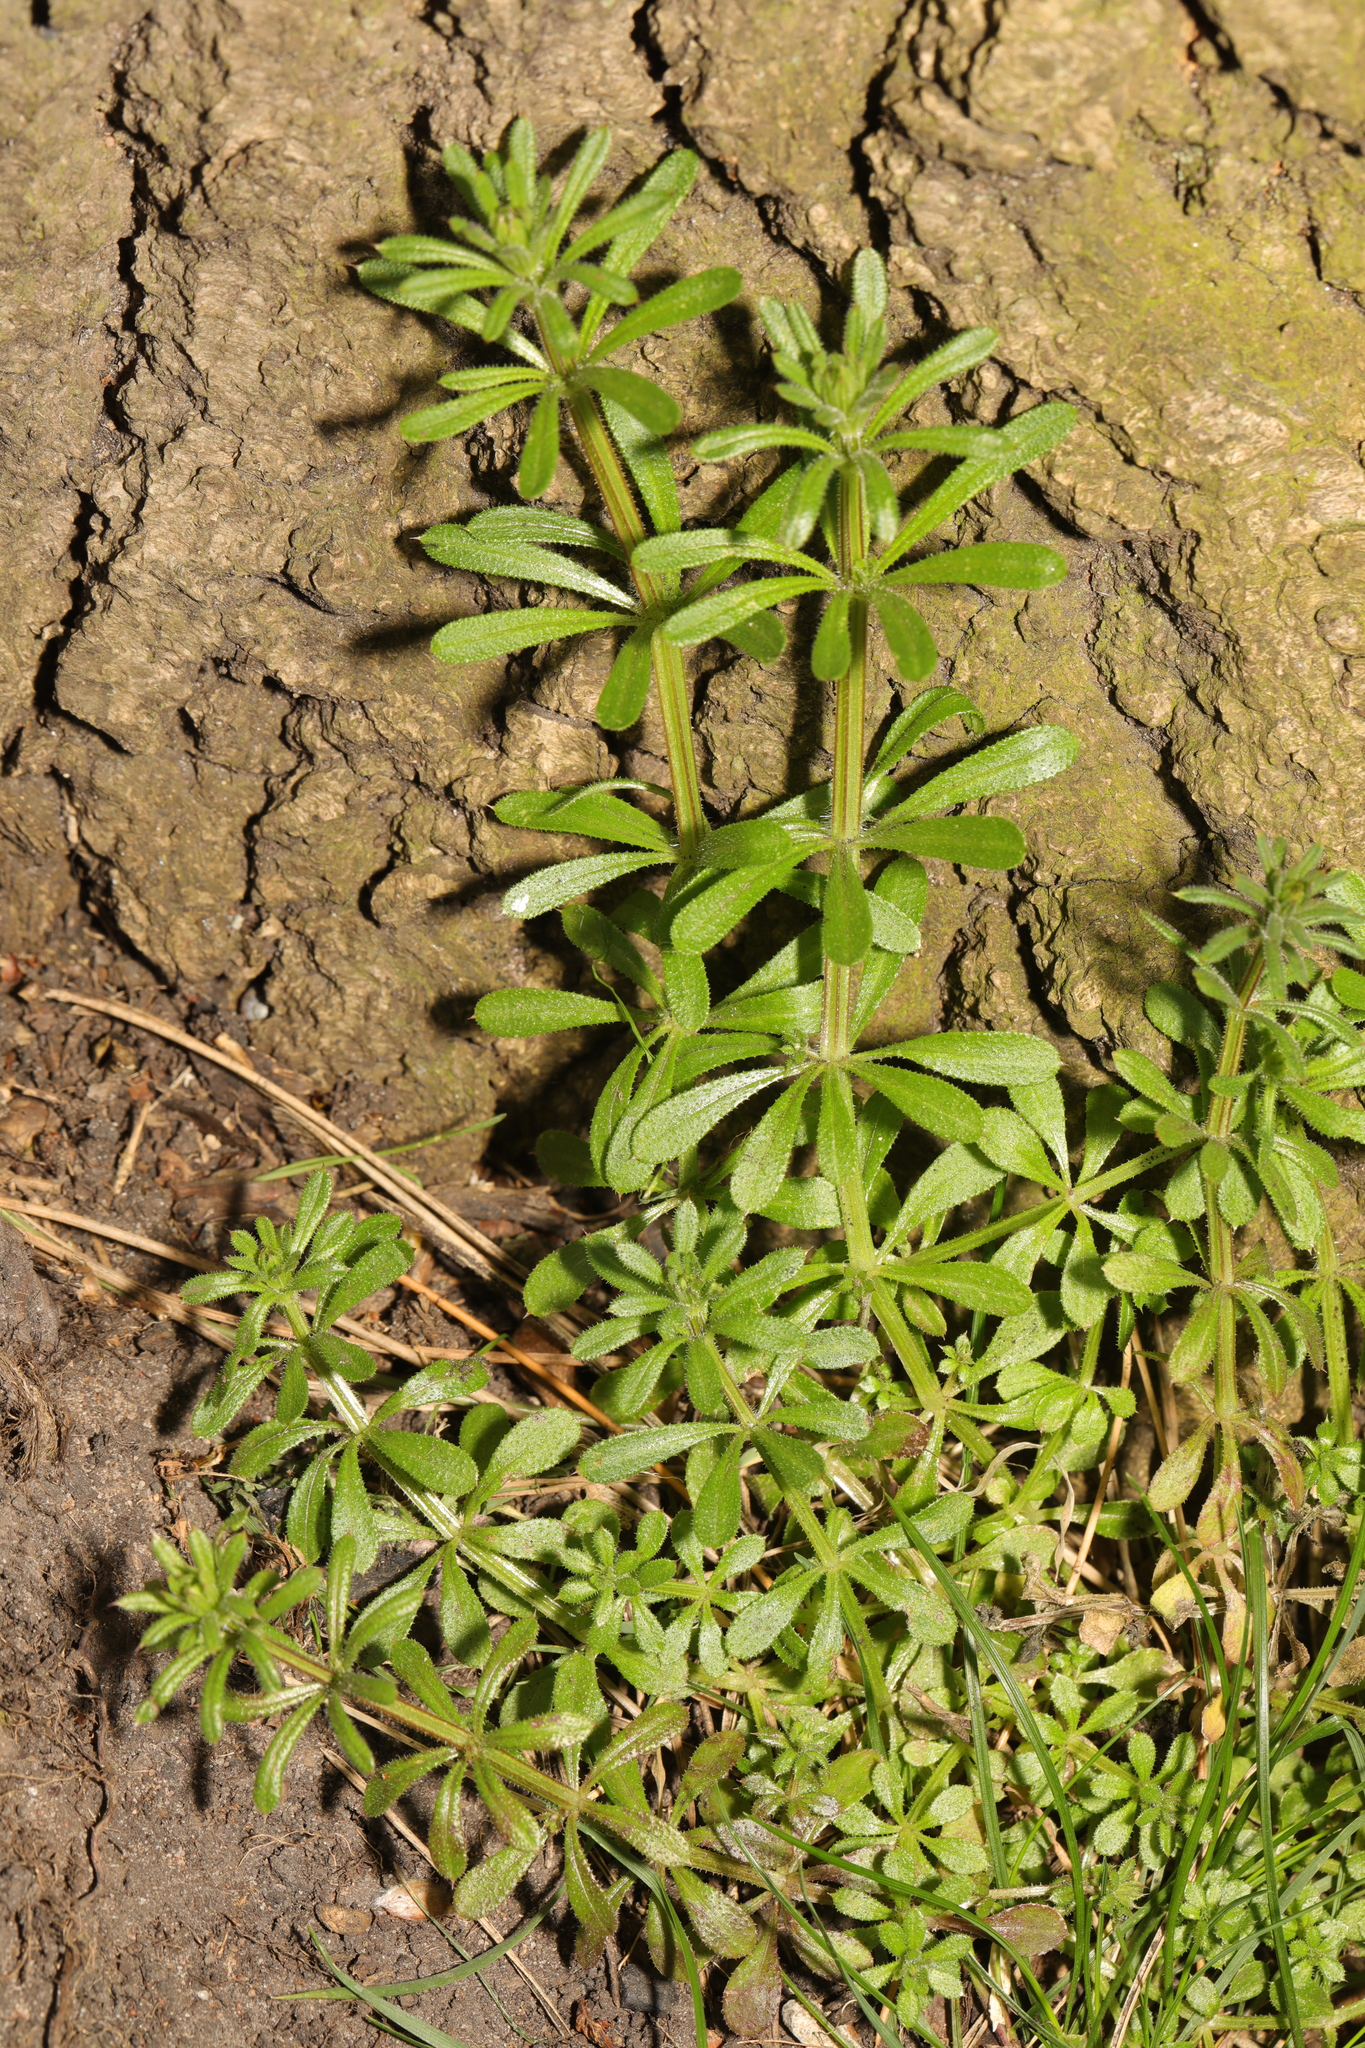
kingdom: Plantae
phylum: Tracheophyta
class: Magnoliopsida
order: Gentianales
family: Rubiaceae
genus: Galium
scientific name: Galium aparine
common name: Cleavers
